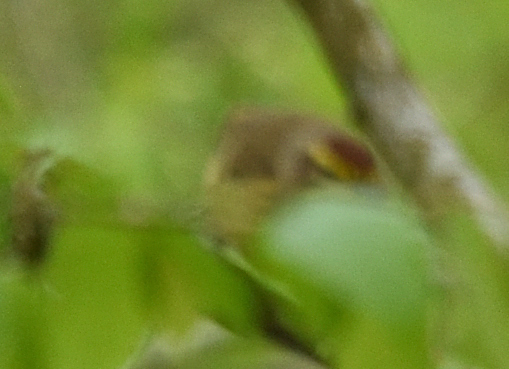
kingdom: Animalia
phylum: Chordata
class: Aves
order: Passeriformes
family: Parulidae
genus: Setophaga
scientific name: Setophaga palmarum
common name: Palm warbler
